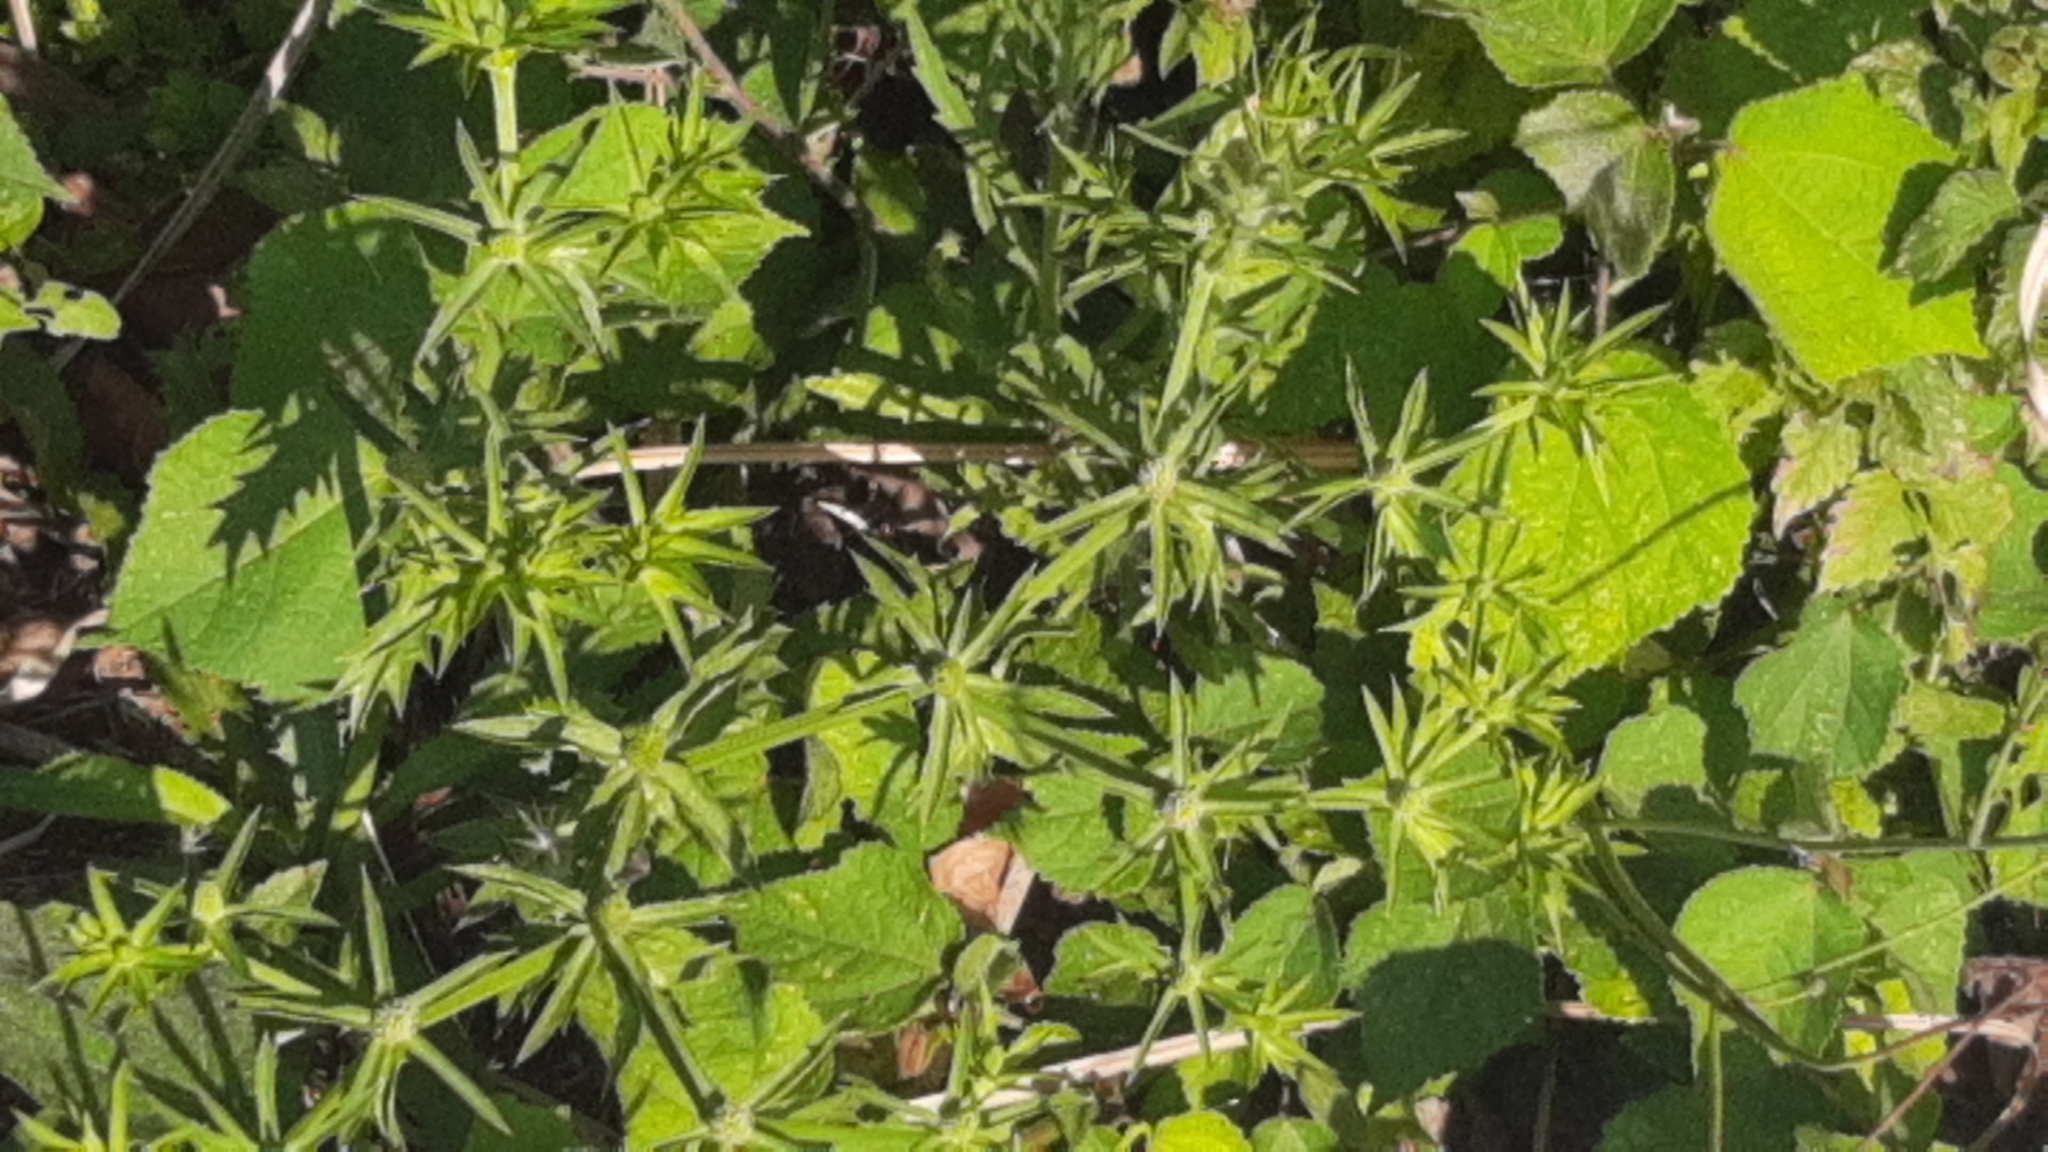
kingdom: Plantae
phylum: Tracheophyta
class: Magnoliopsida
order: Apiales
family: Apiaceae
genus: Eryngium
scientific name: Eryngium foetidum
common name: Fitweed
